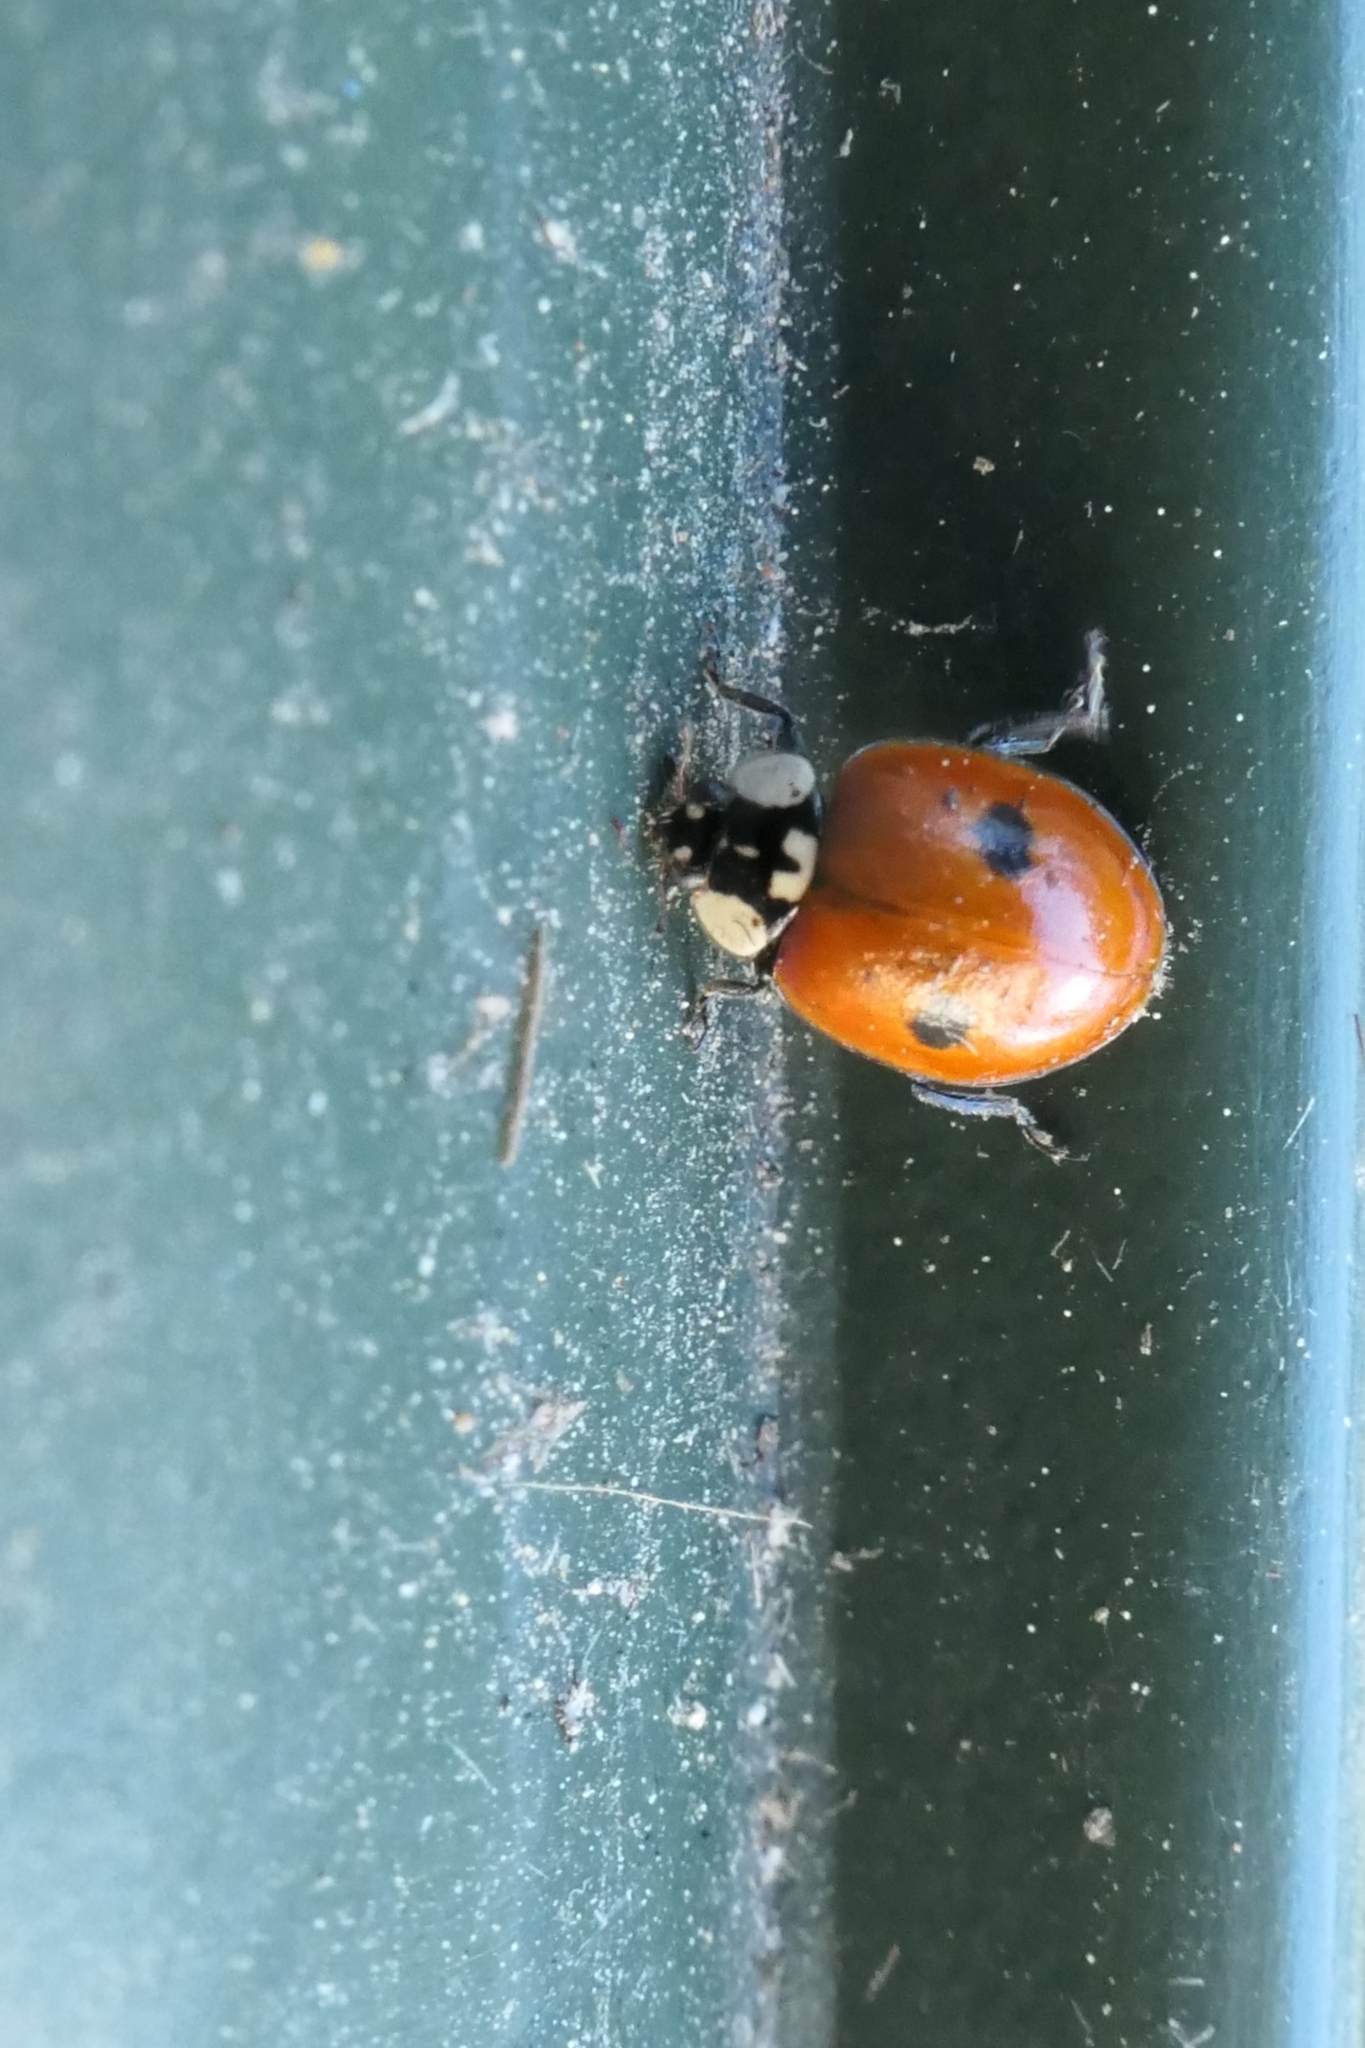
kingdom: Animalia
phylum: Arthropoda
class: Insecta
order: Coleoptera
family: Coccinellidae
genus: Adalia
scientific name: Adalia bipunctata
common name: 2-spot ladybird
